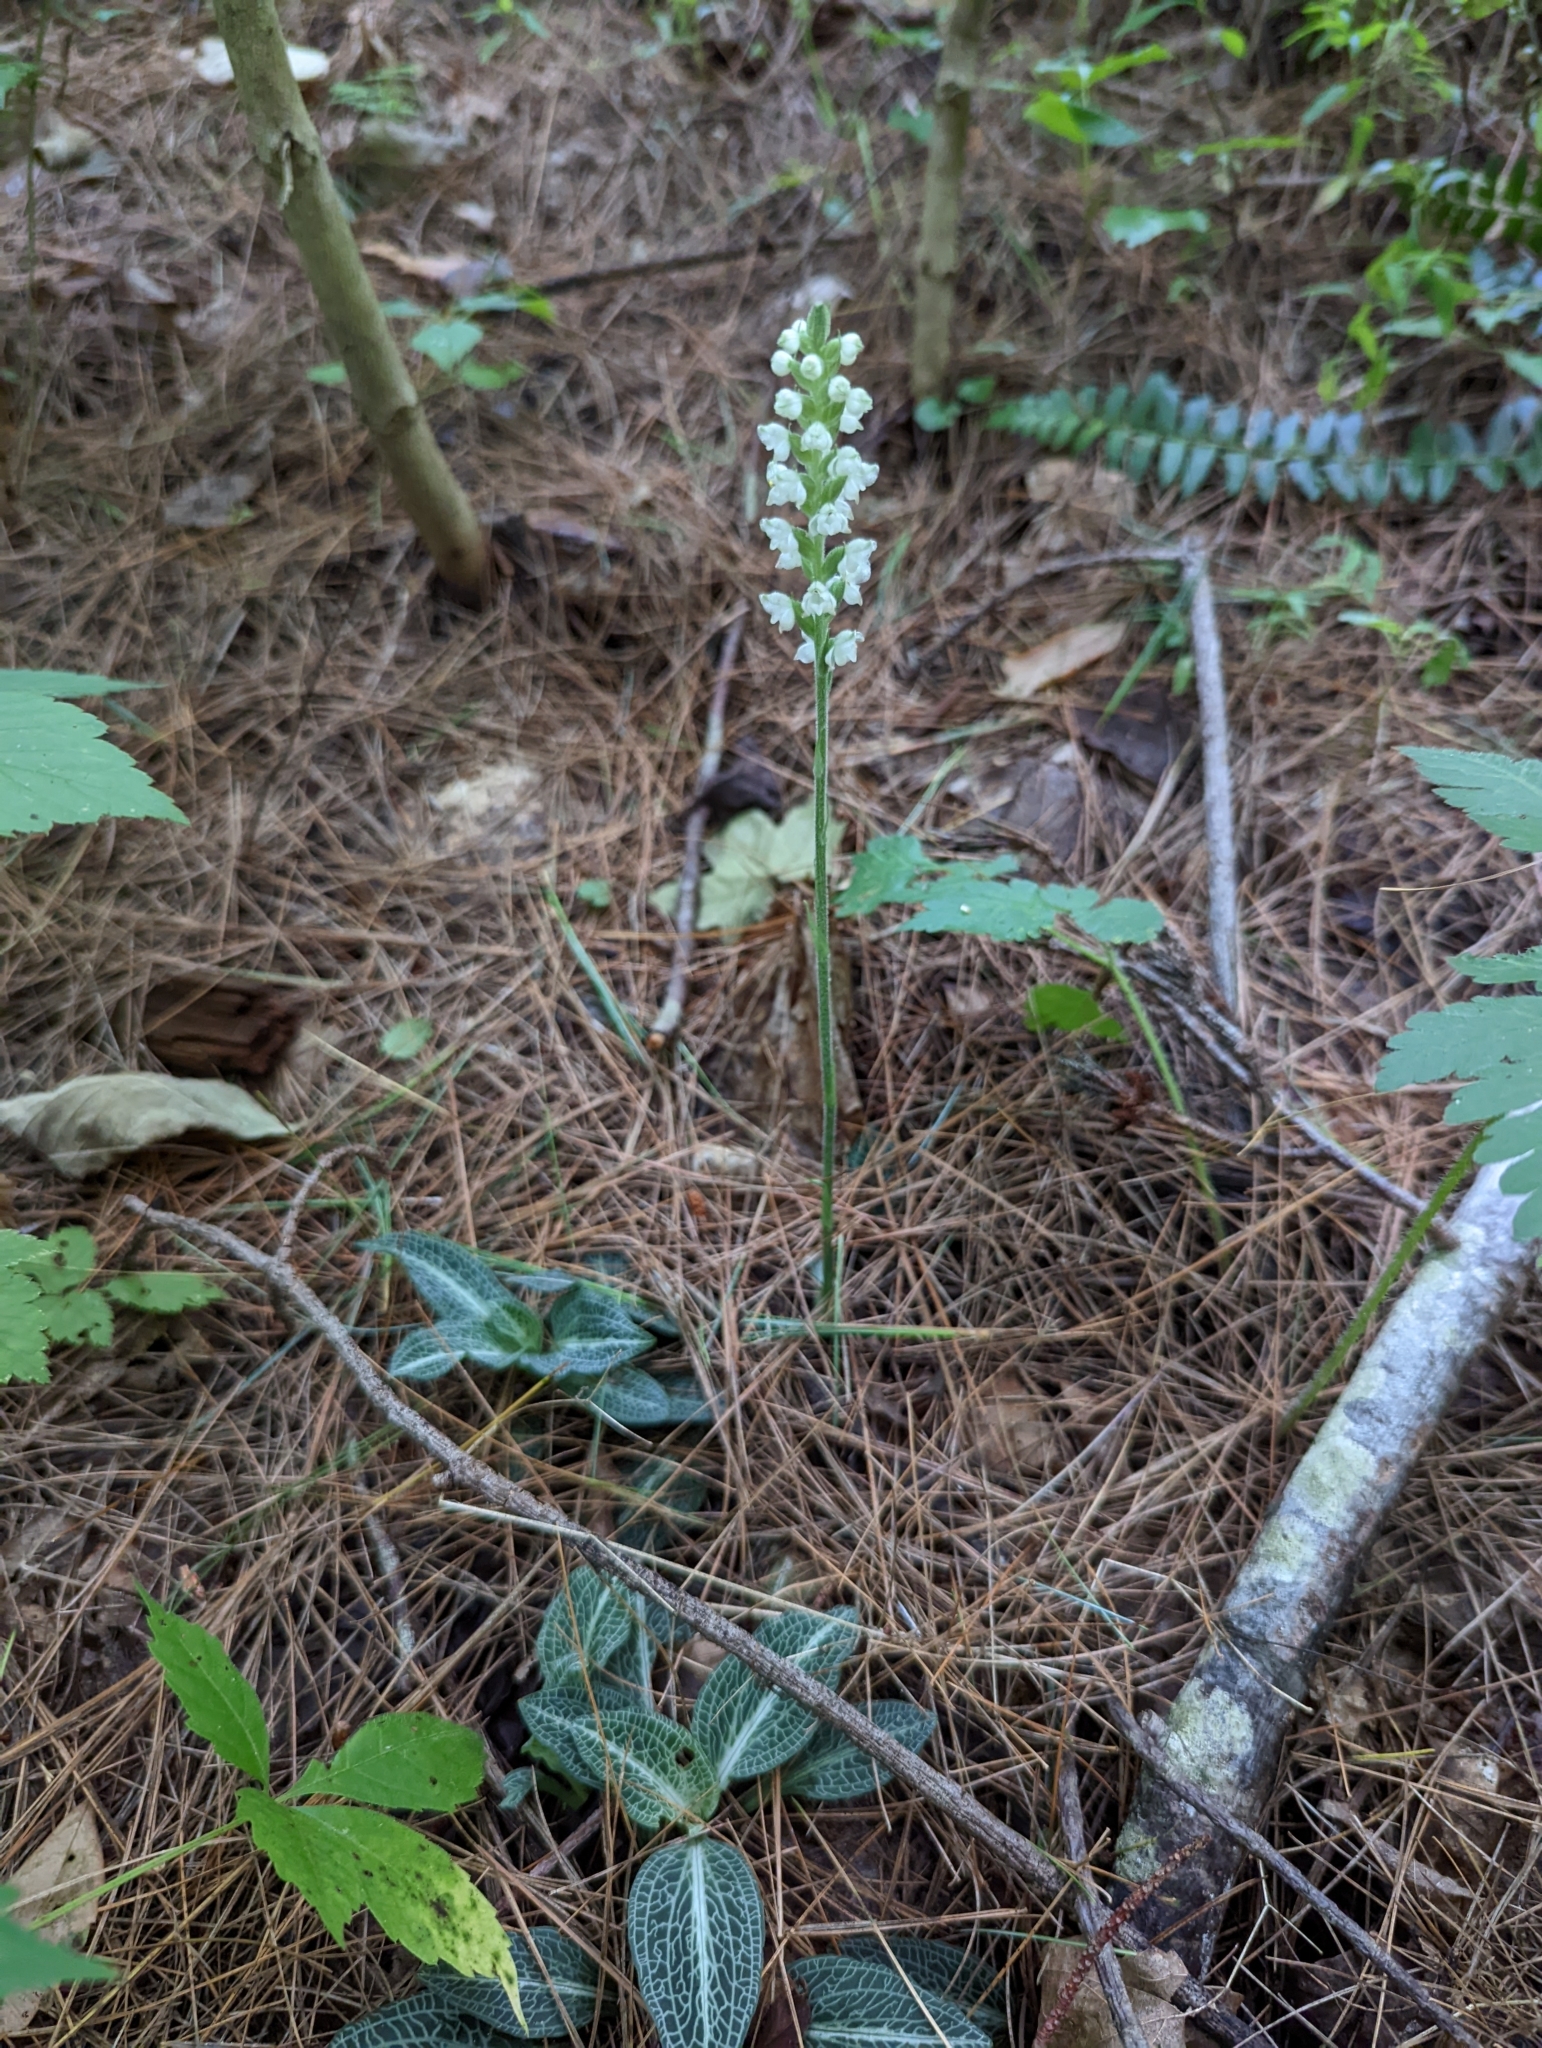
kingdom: Plantae
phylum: Tracheophyta
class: Liliopsida
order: Asparagales
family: Orchidaceae
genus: Goodyera
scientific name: Goodyera pubescens
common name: Downy rattlesnake-plantain
